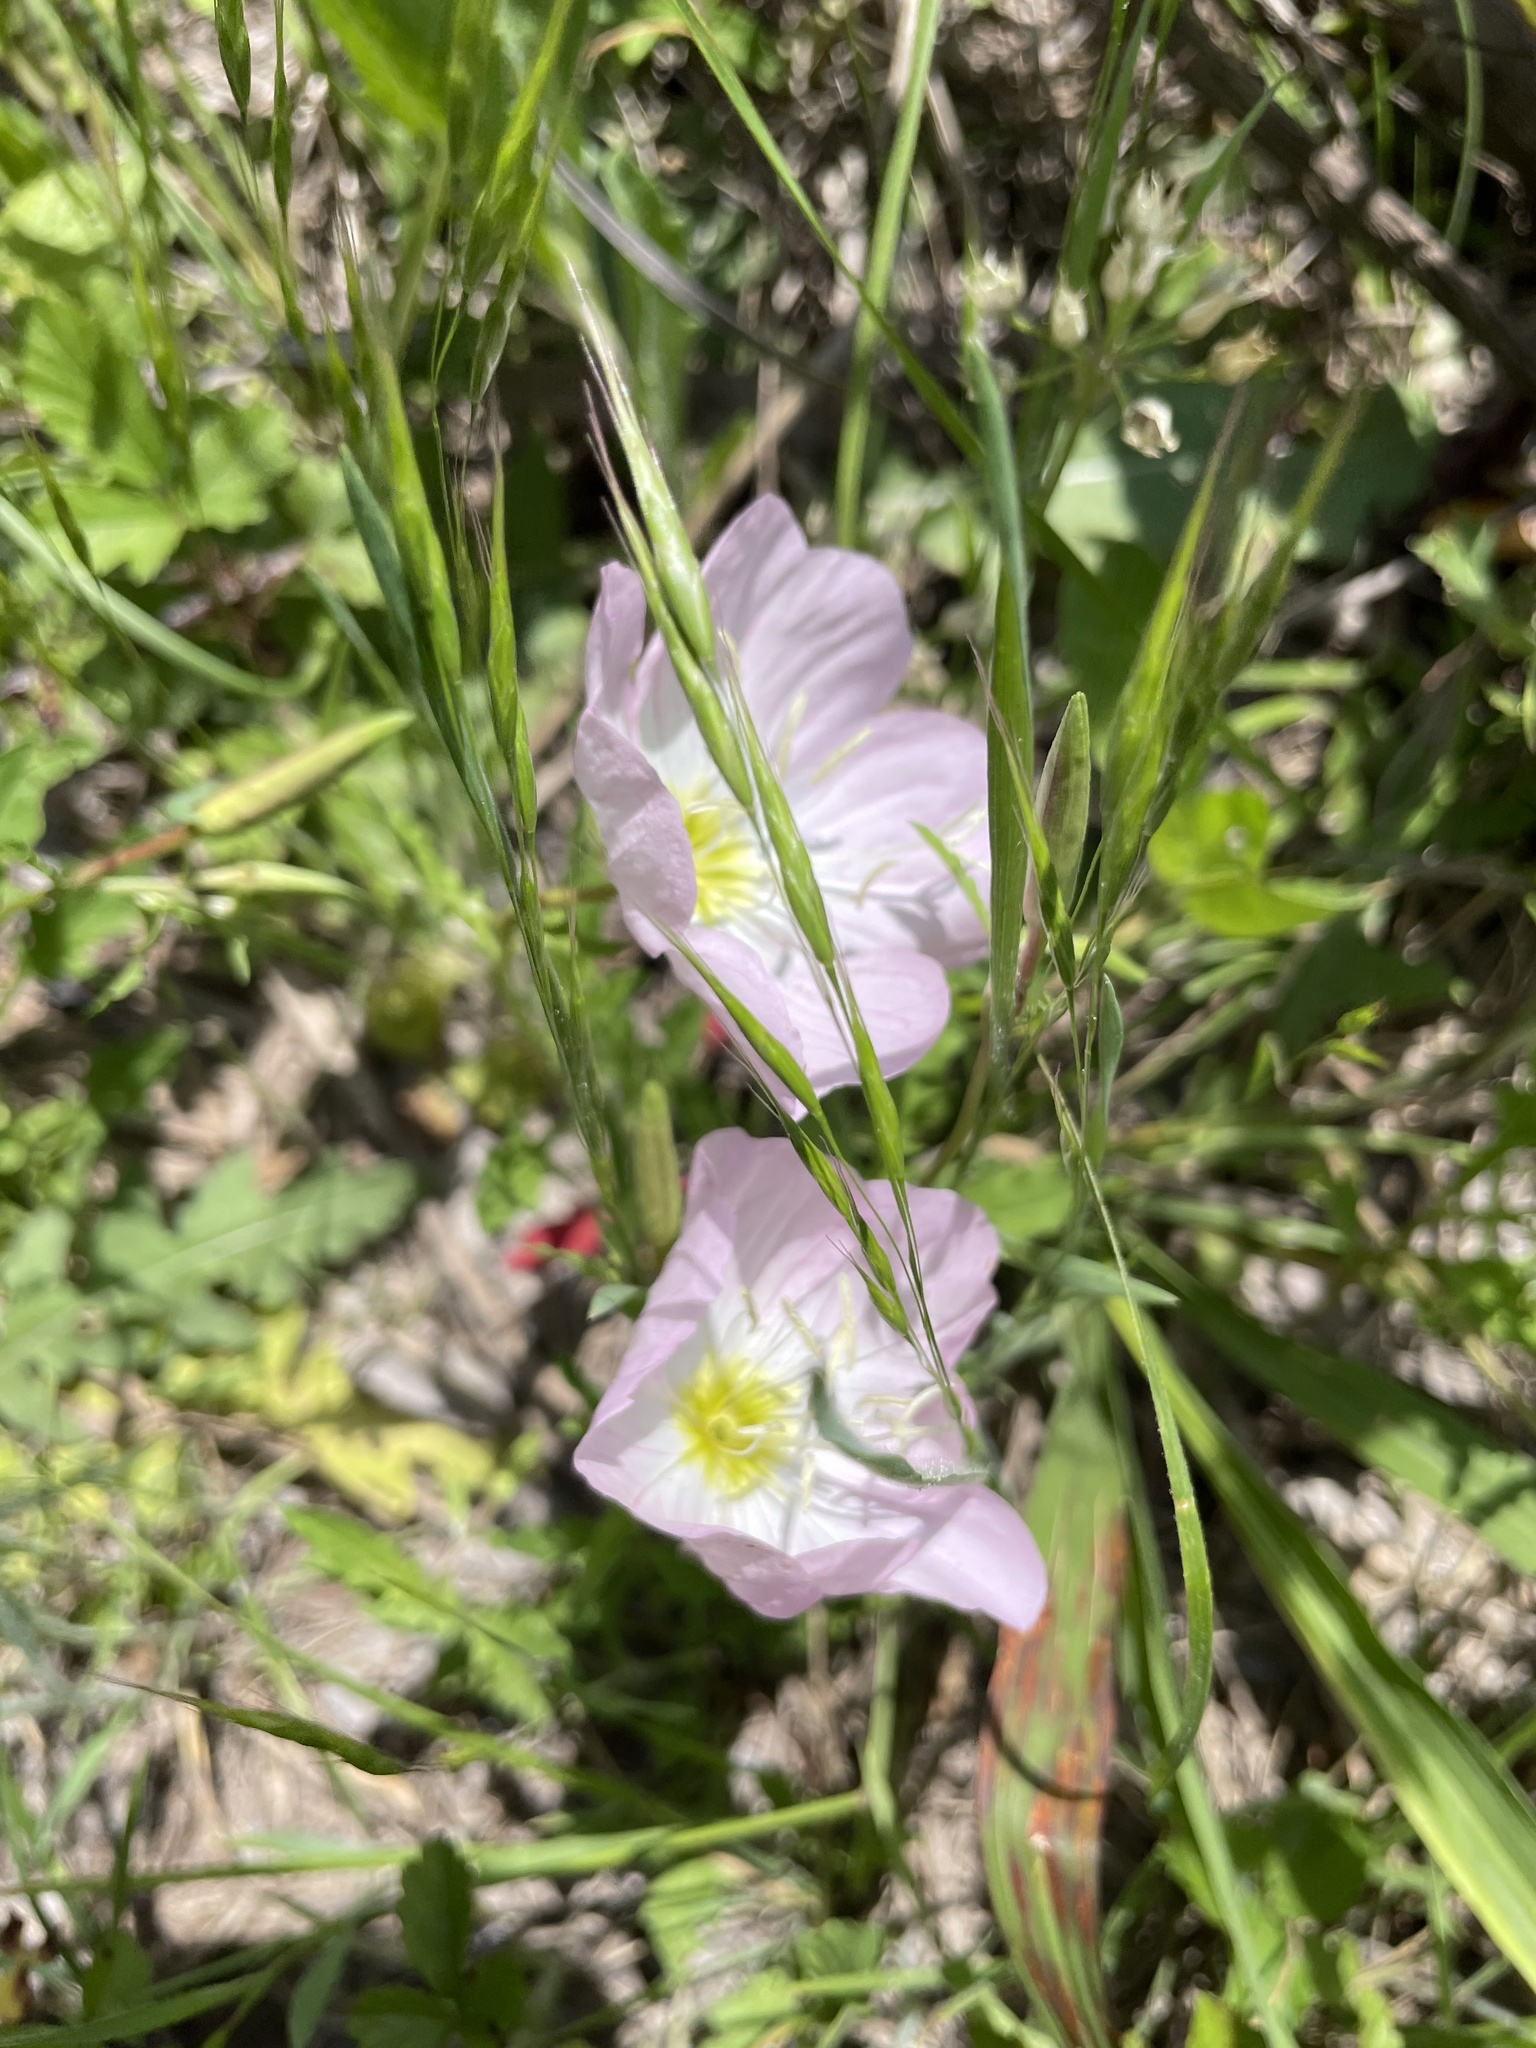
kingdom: Plantae
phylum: Tracheophyta
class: Magnoliopsida
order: Myrtales
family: Onagraceae
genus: Oenothera
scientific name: Oenothera speciosa
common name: White evening-primrose
